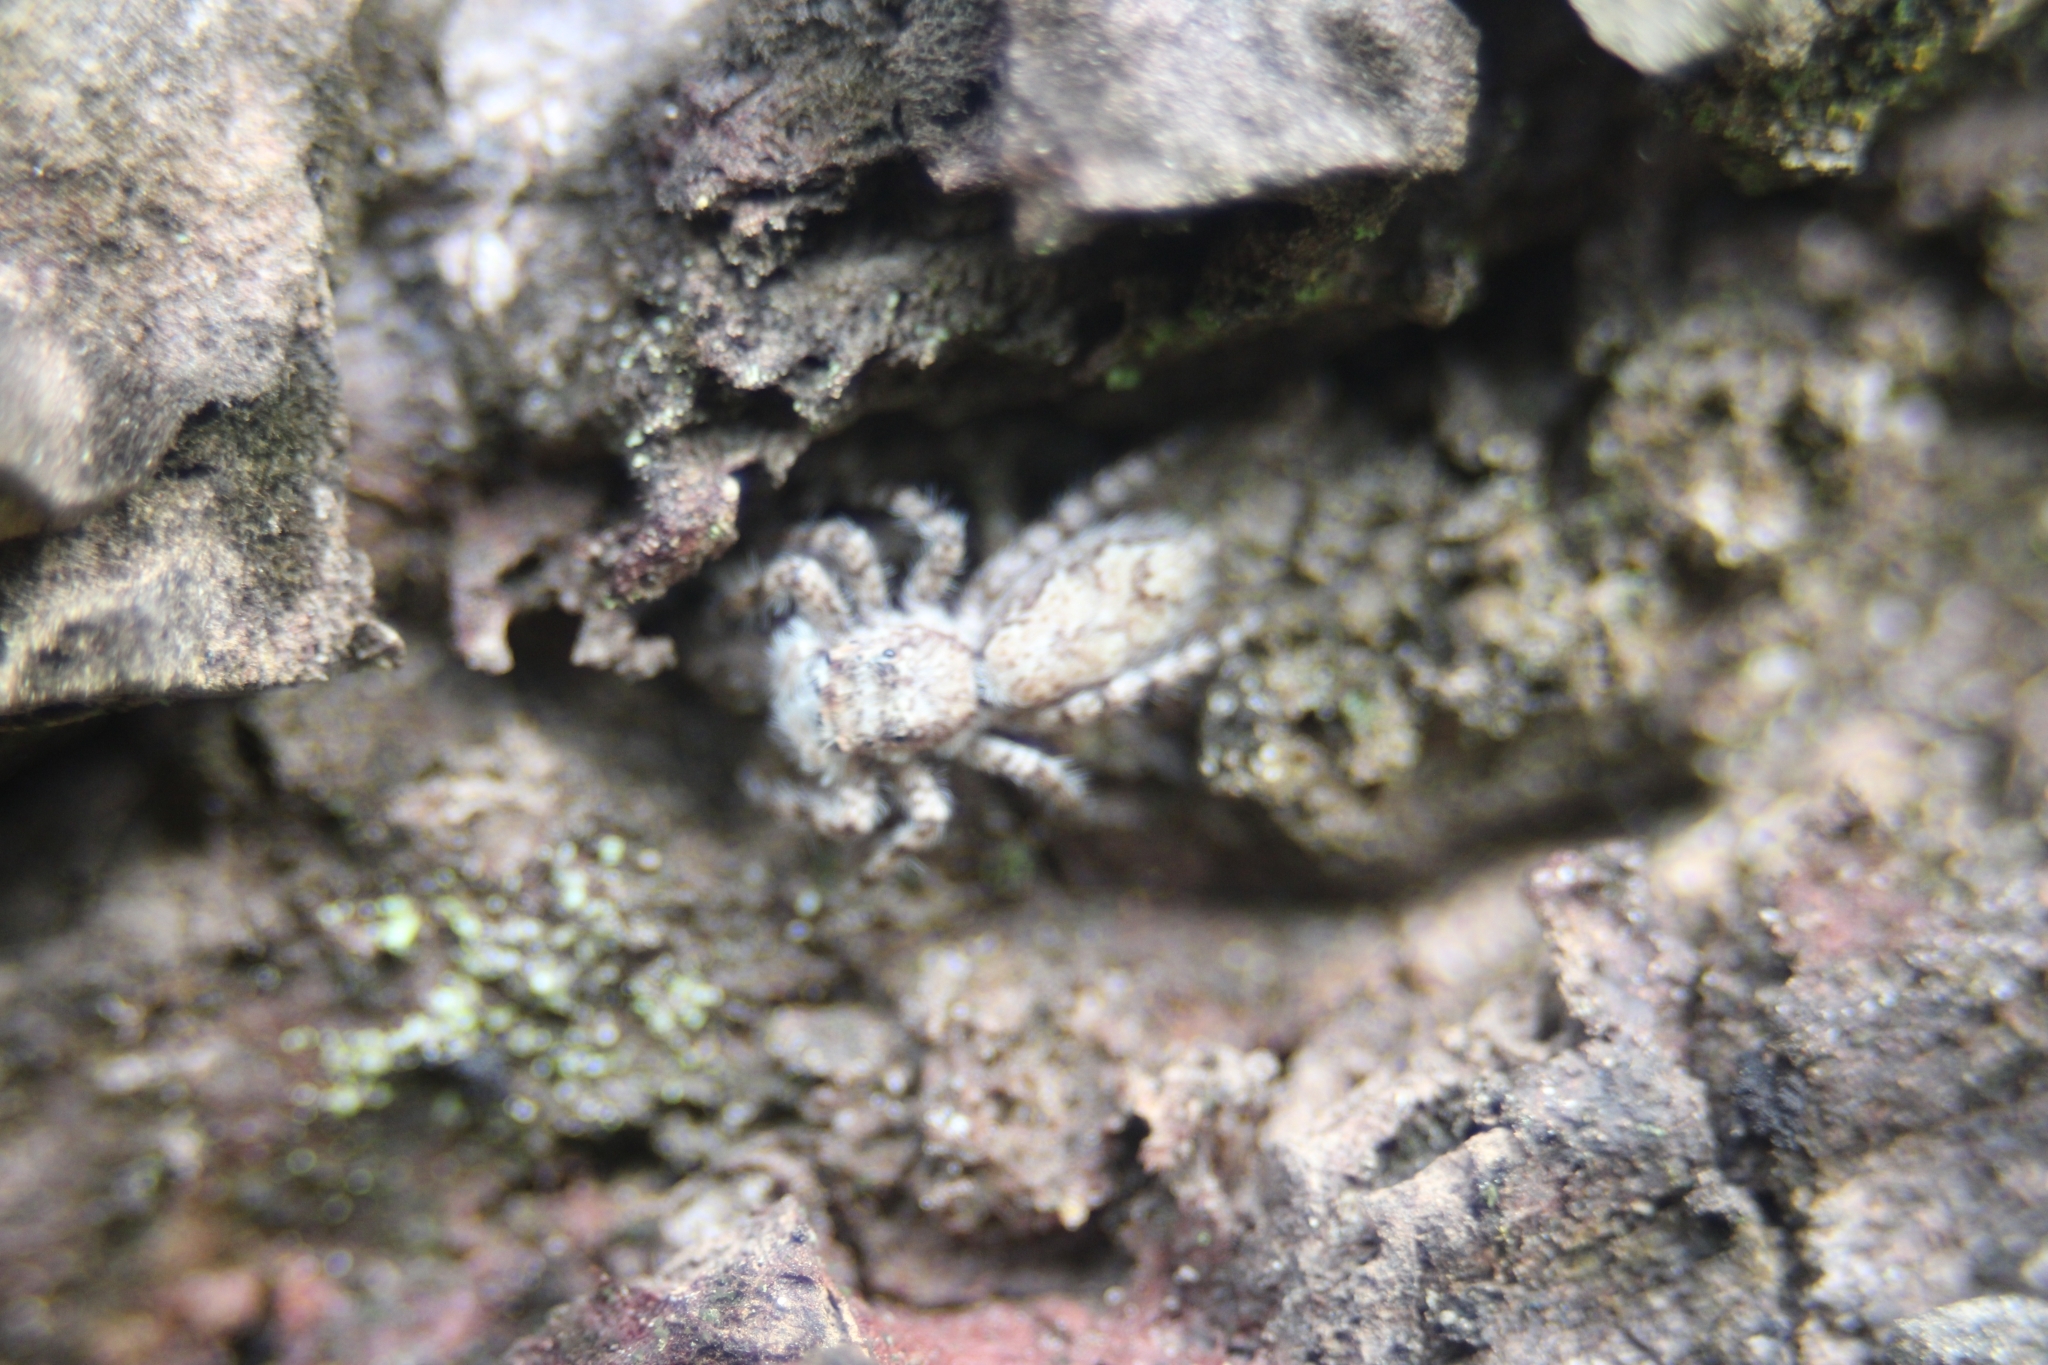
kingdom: Animalia
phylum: Arthropoda
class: Arachnida
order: Araneae
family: Salticidae
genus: Platycryptus
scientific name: Platycryptus magnus
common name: Jumping spiders
